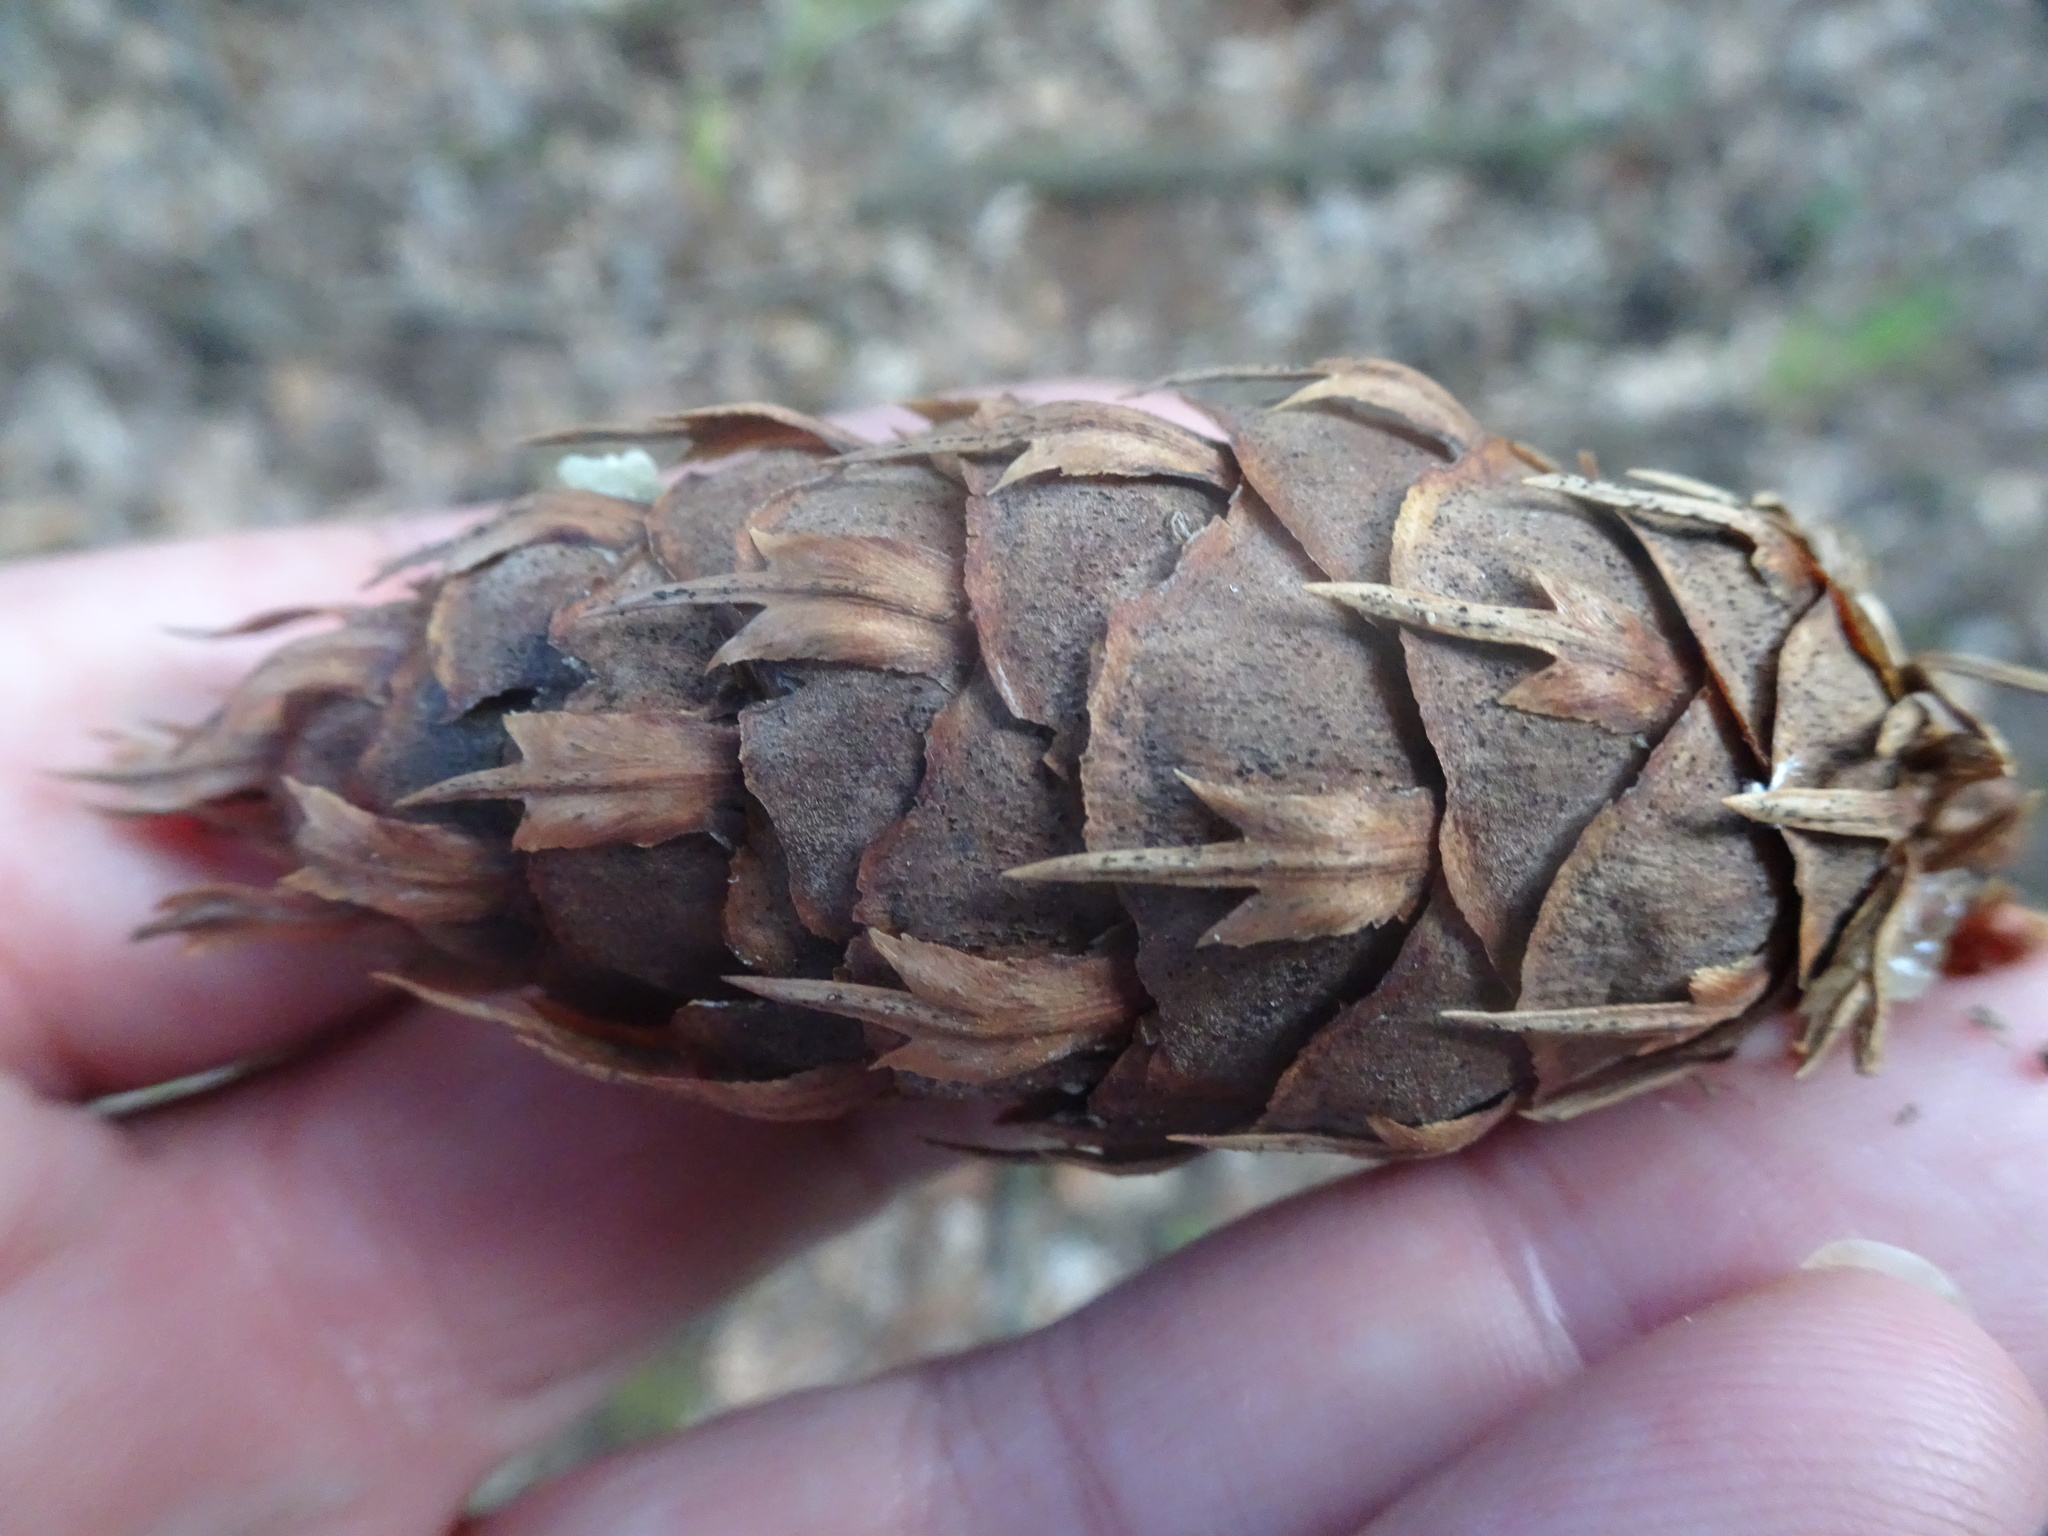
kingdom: Plantae
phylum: Tracheophyta
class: Pinopsida
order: Pinales
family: Pinaceae
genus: Pseudotsuga
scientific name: Pseudotsuga menziesii
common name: Douglas fir
